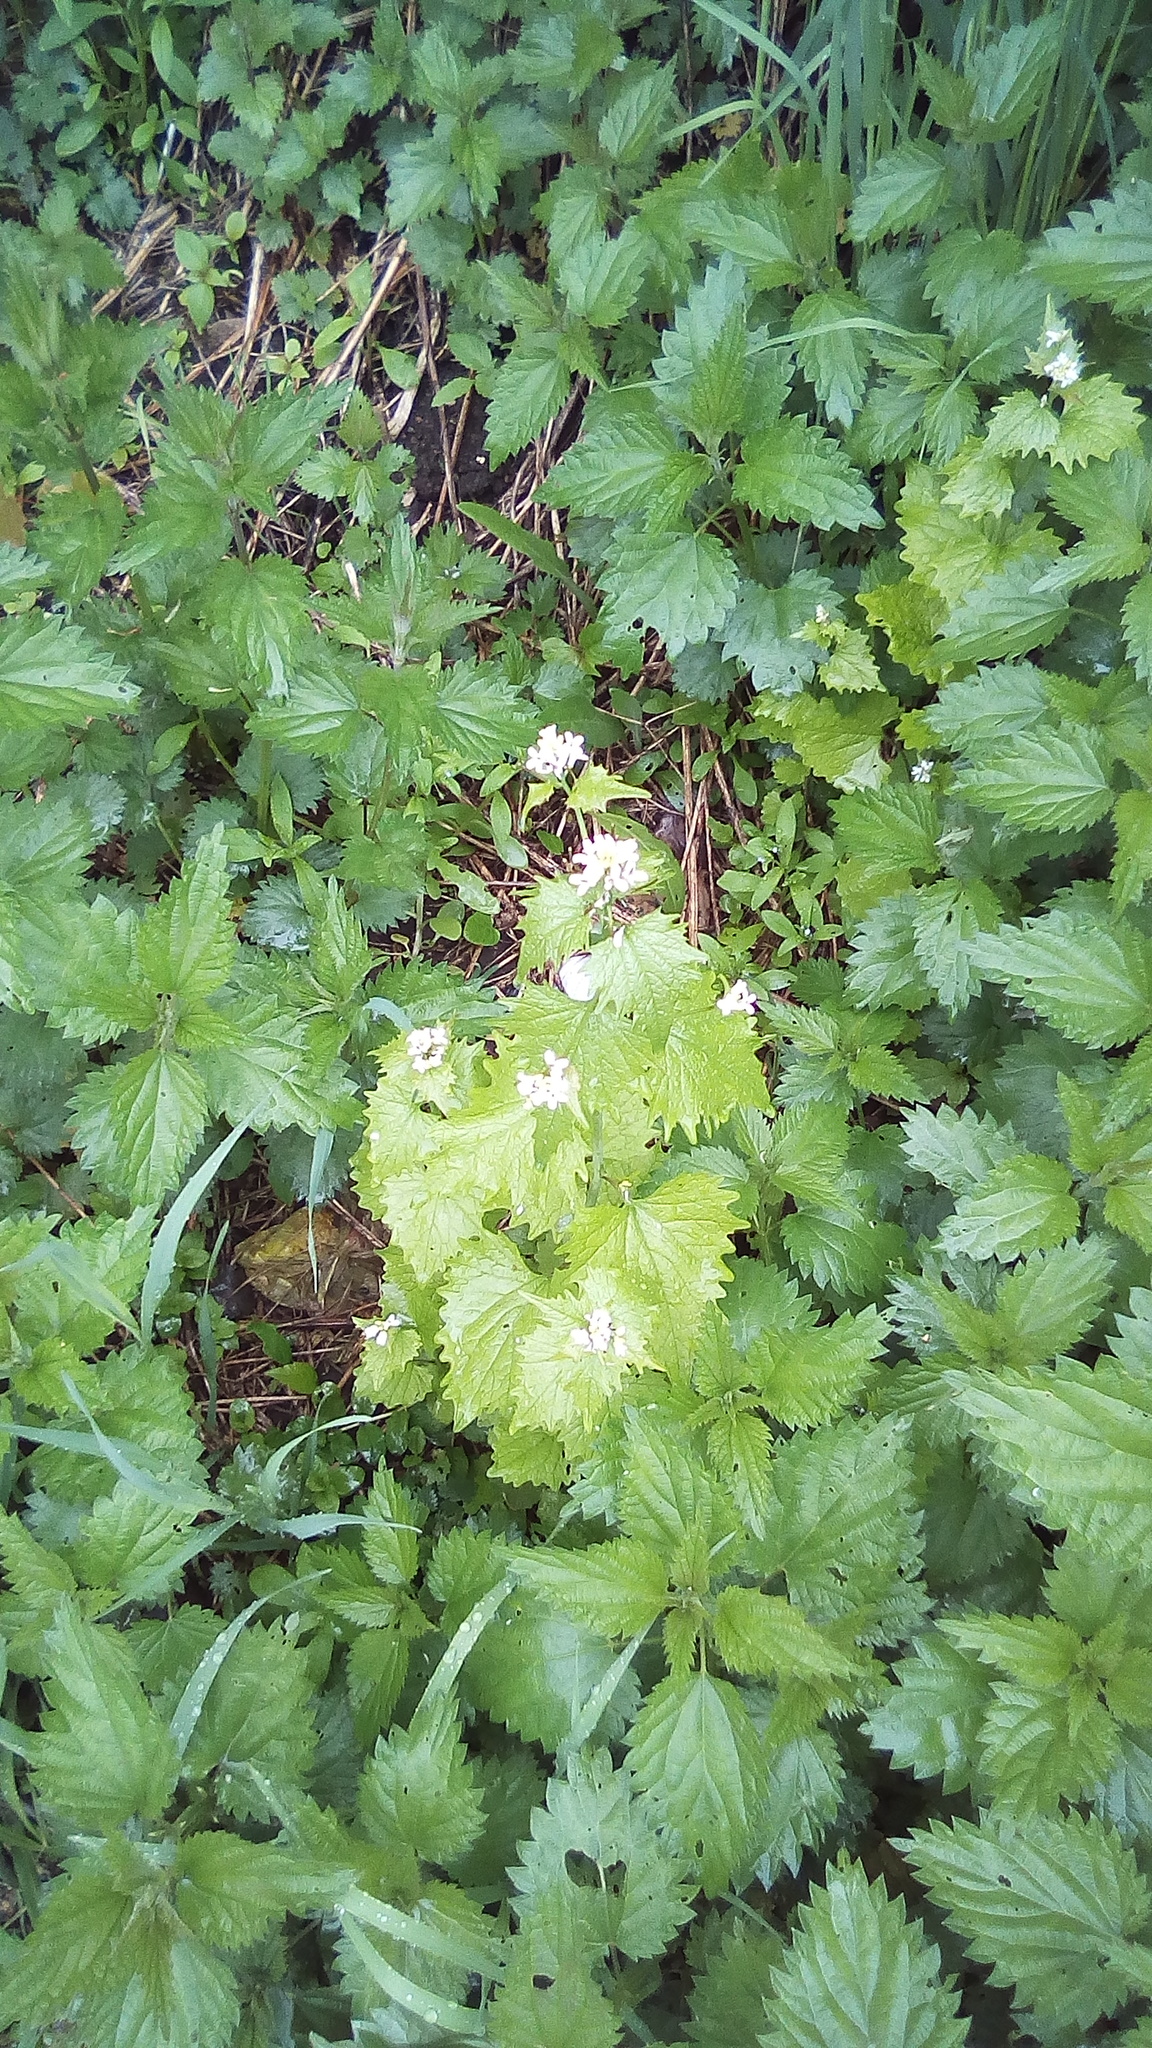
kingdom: Plantae
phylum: Tracheophyta
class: Magnoliopsida
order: Brassicales
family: Brassicaceae
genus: Alliaria
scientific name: Alliaria petiolata
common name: Garlic mustard
